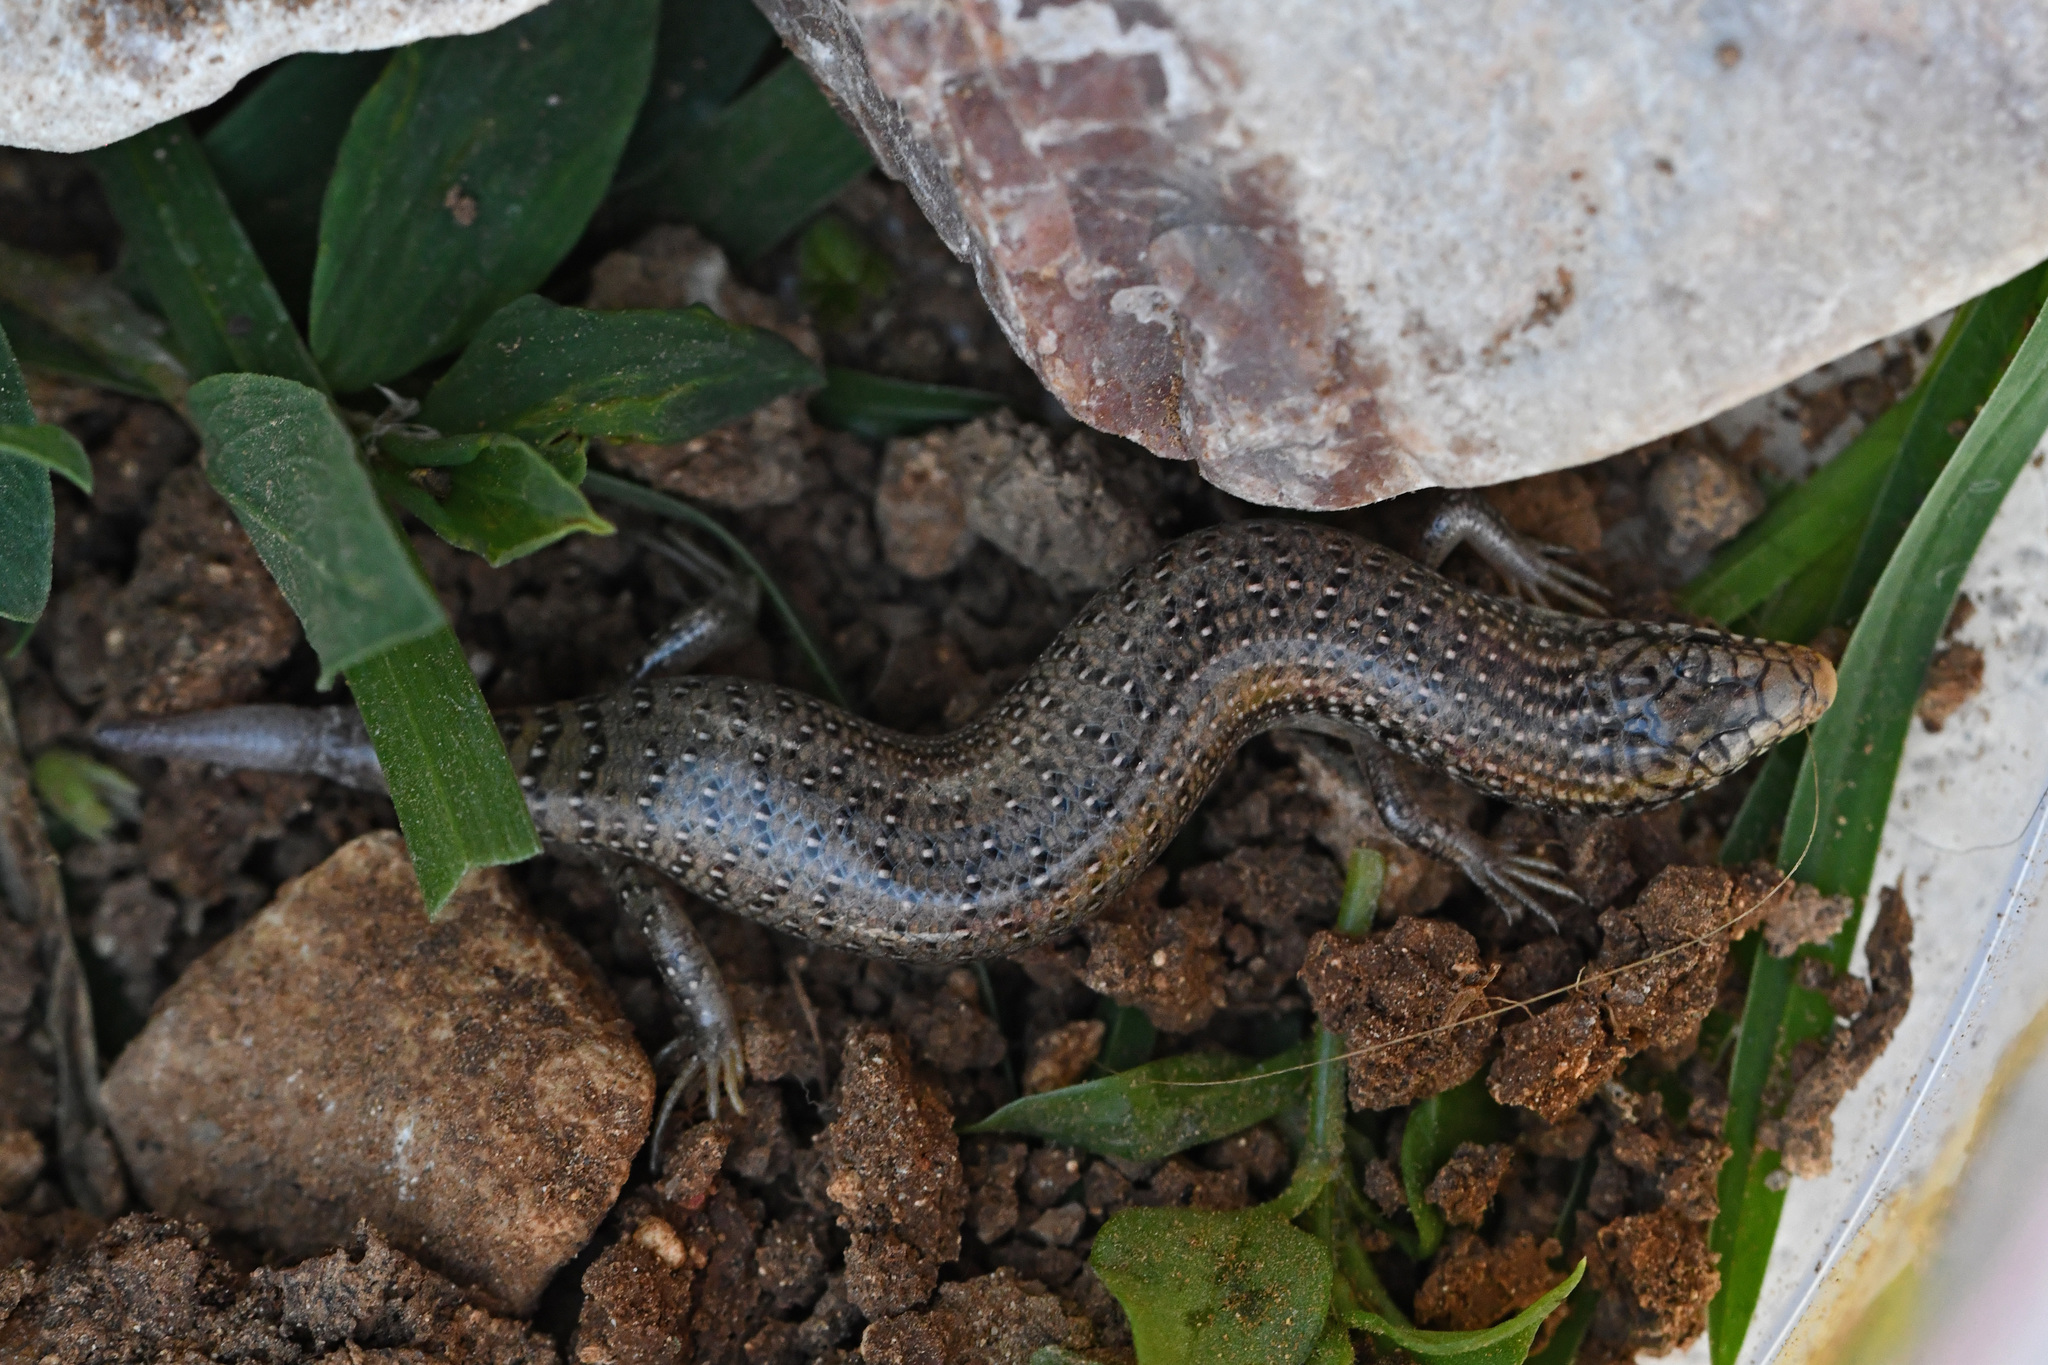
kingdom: Animalia
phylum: Chordata
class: Squamata
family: Scincidae
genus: Chalcides
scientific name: Chalcides ocellatus
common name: Ocellated skink
